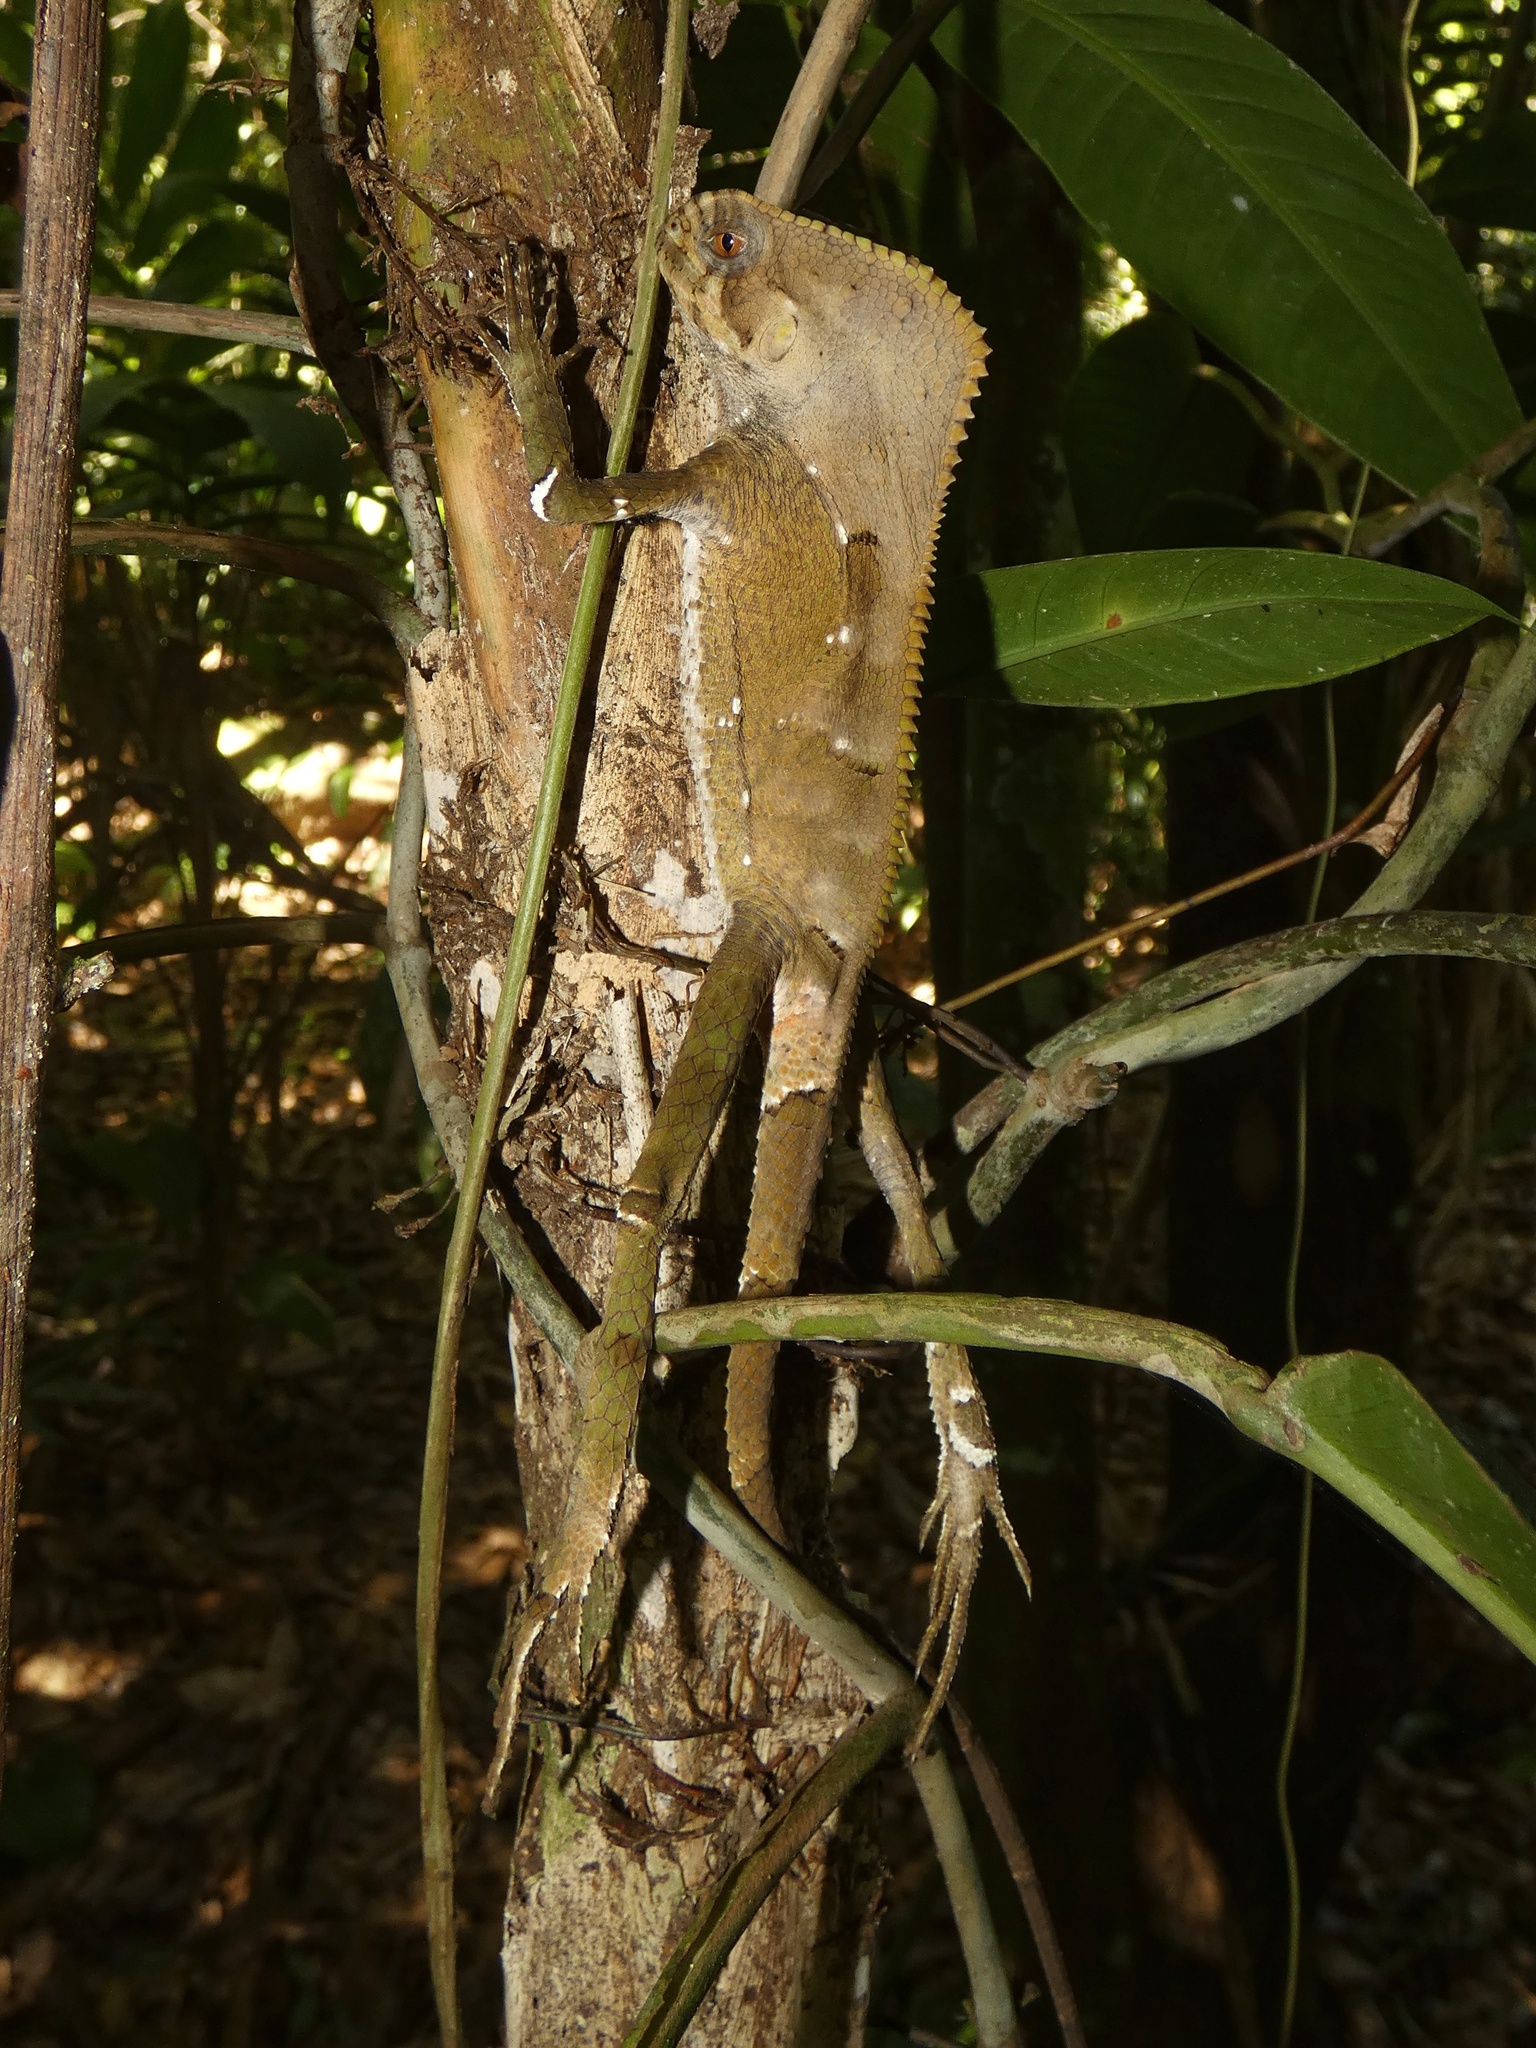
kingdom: Animalia
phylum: Chordata
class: Squamata
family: Corytophanidae
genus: Corytophanes
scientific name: Corytophanes cristatus
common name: Smooth helmeted iguana
